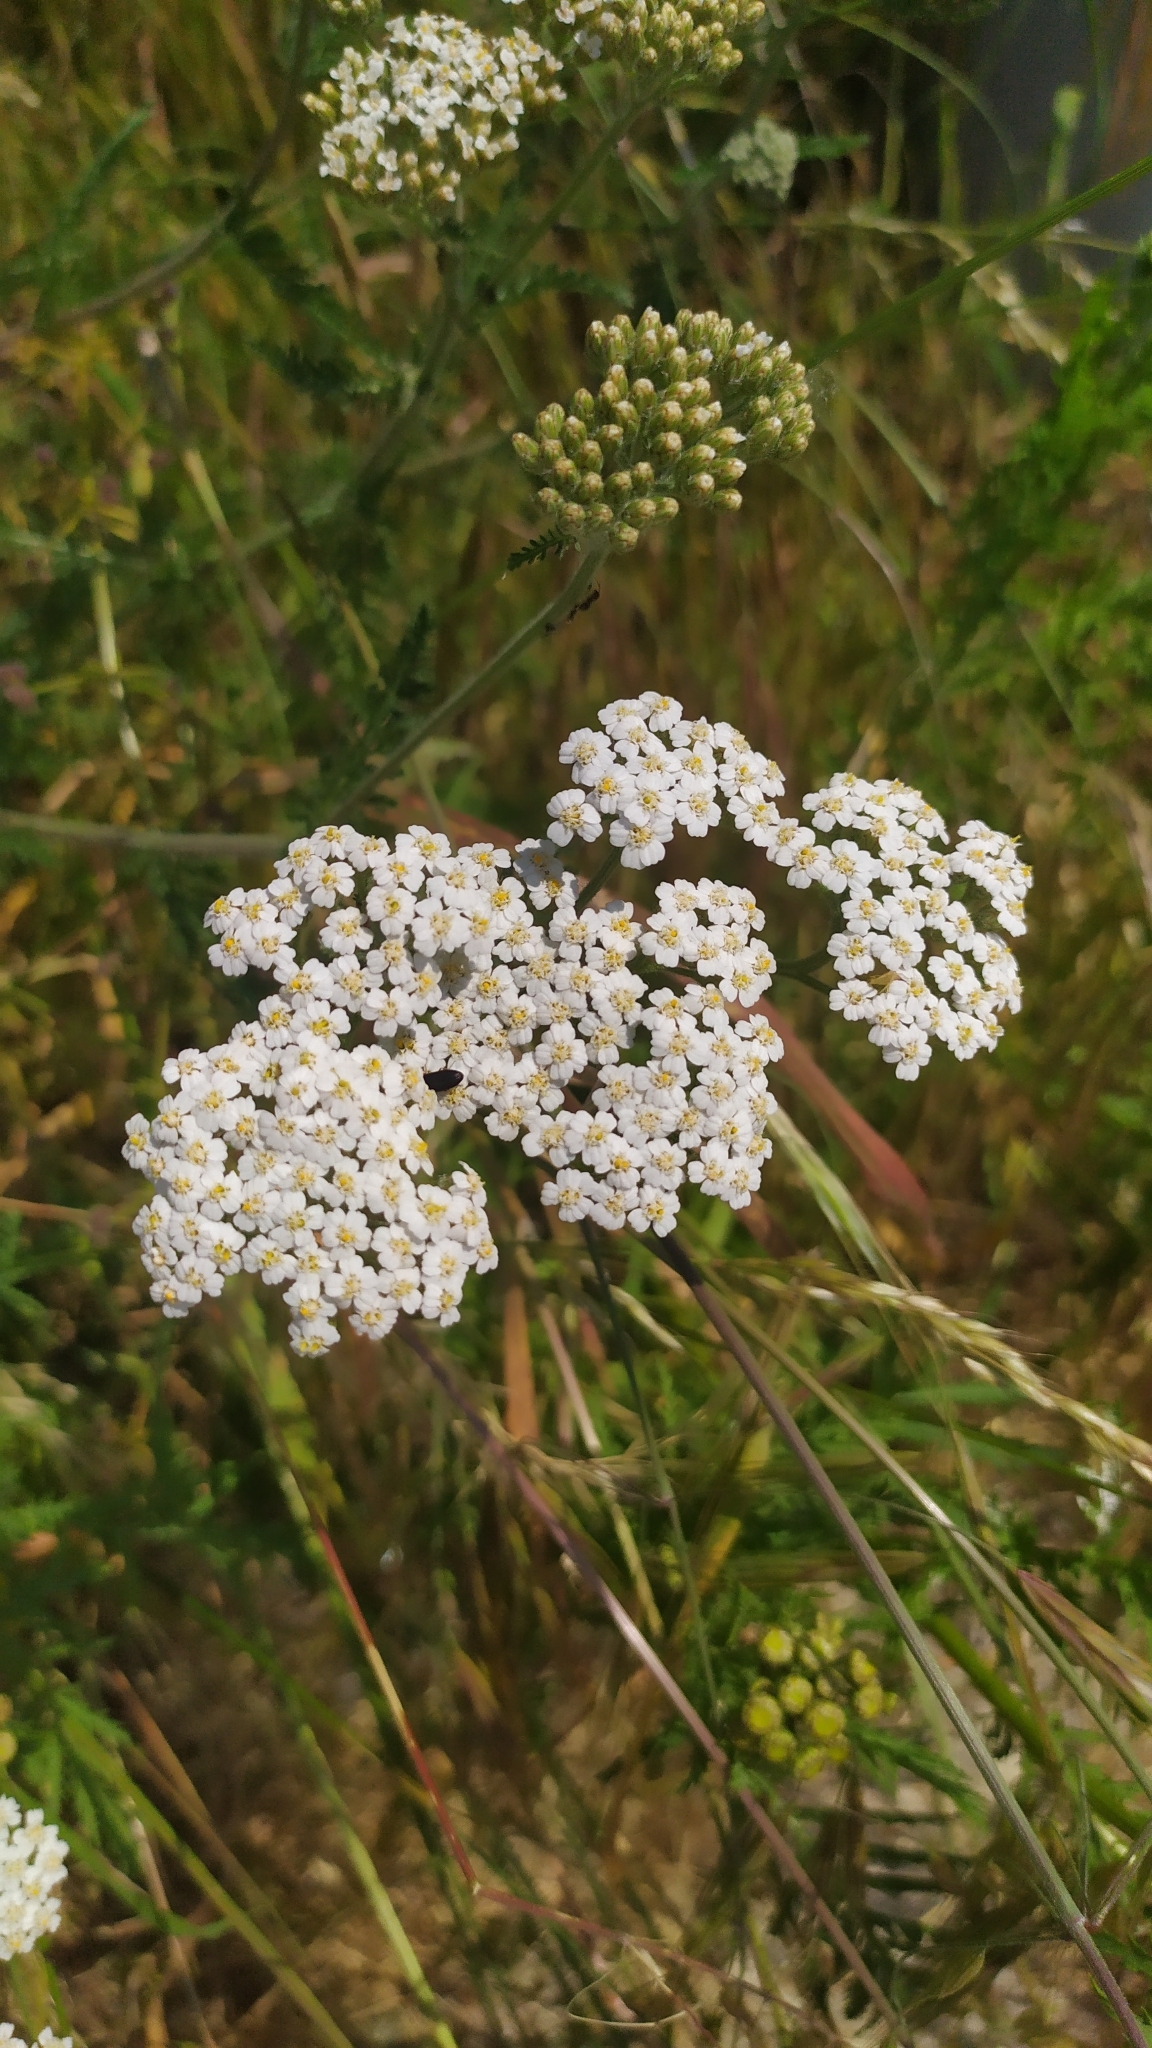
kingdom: Plantae
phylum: Tracheophyta
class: Magnoliopsida
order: Asterales
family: Asteraceae
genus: Achillea
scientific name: Achillea millefolium
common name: Yarrow
